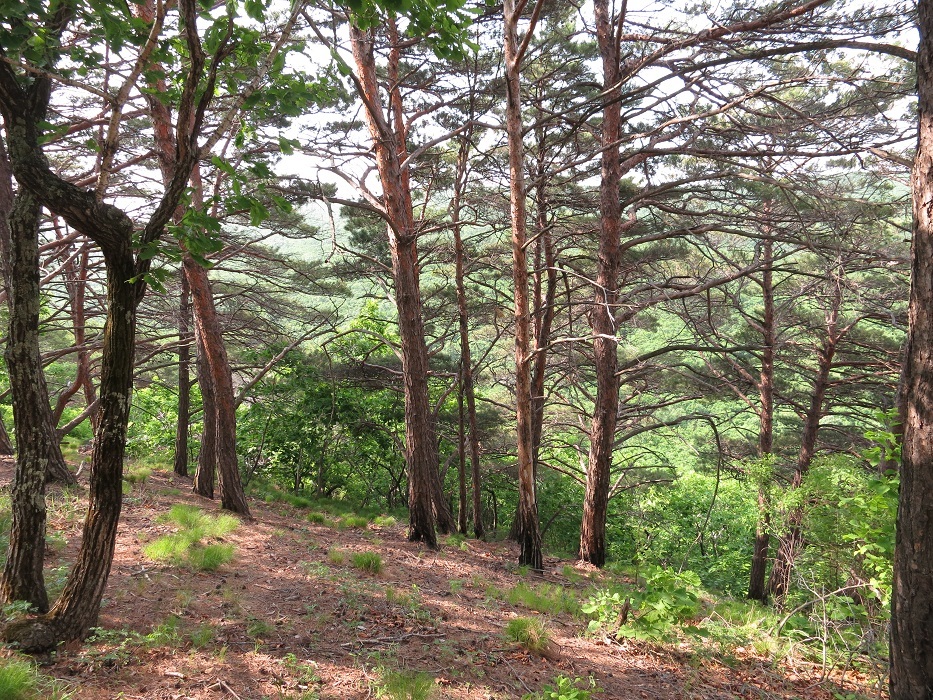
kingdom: Plantae
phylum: Tracheophyta
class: Pinopsida
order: Pinales
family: Pinaceae
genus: Pinus
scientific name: Pinus densiflora
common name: Japanese red pine
